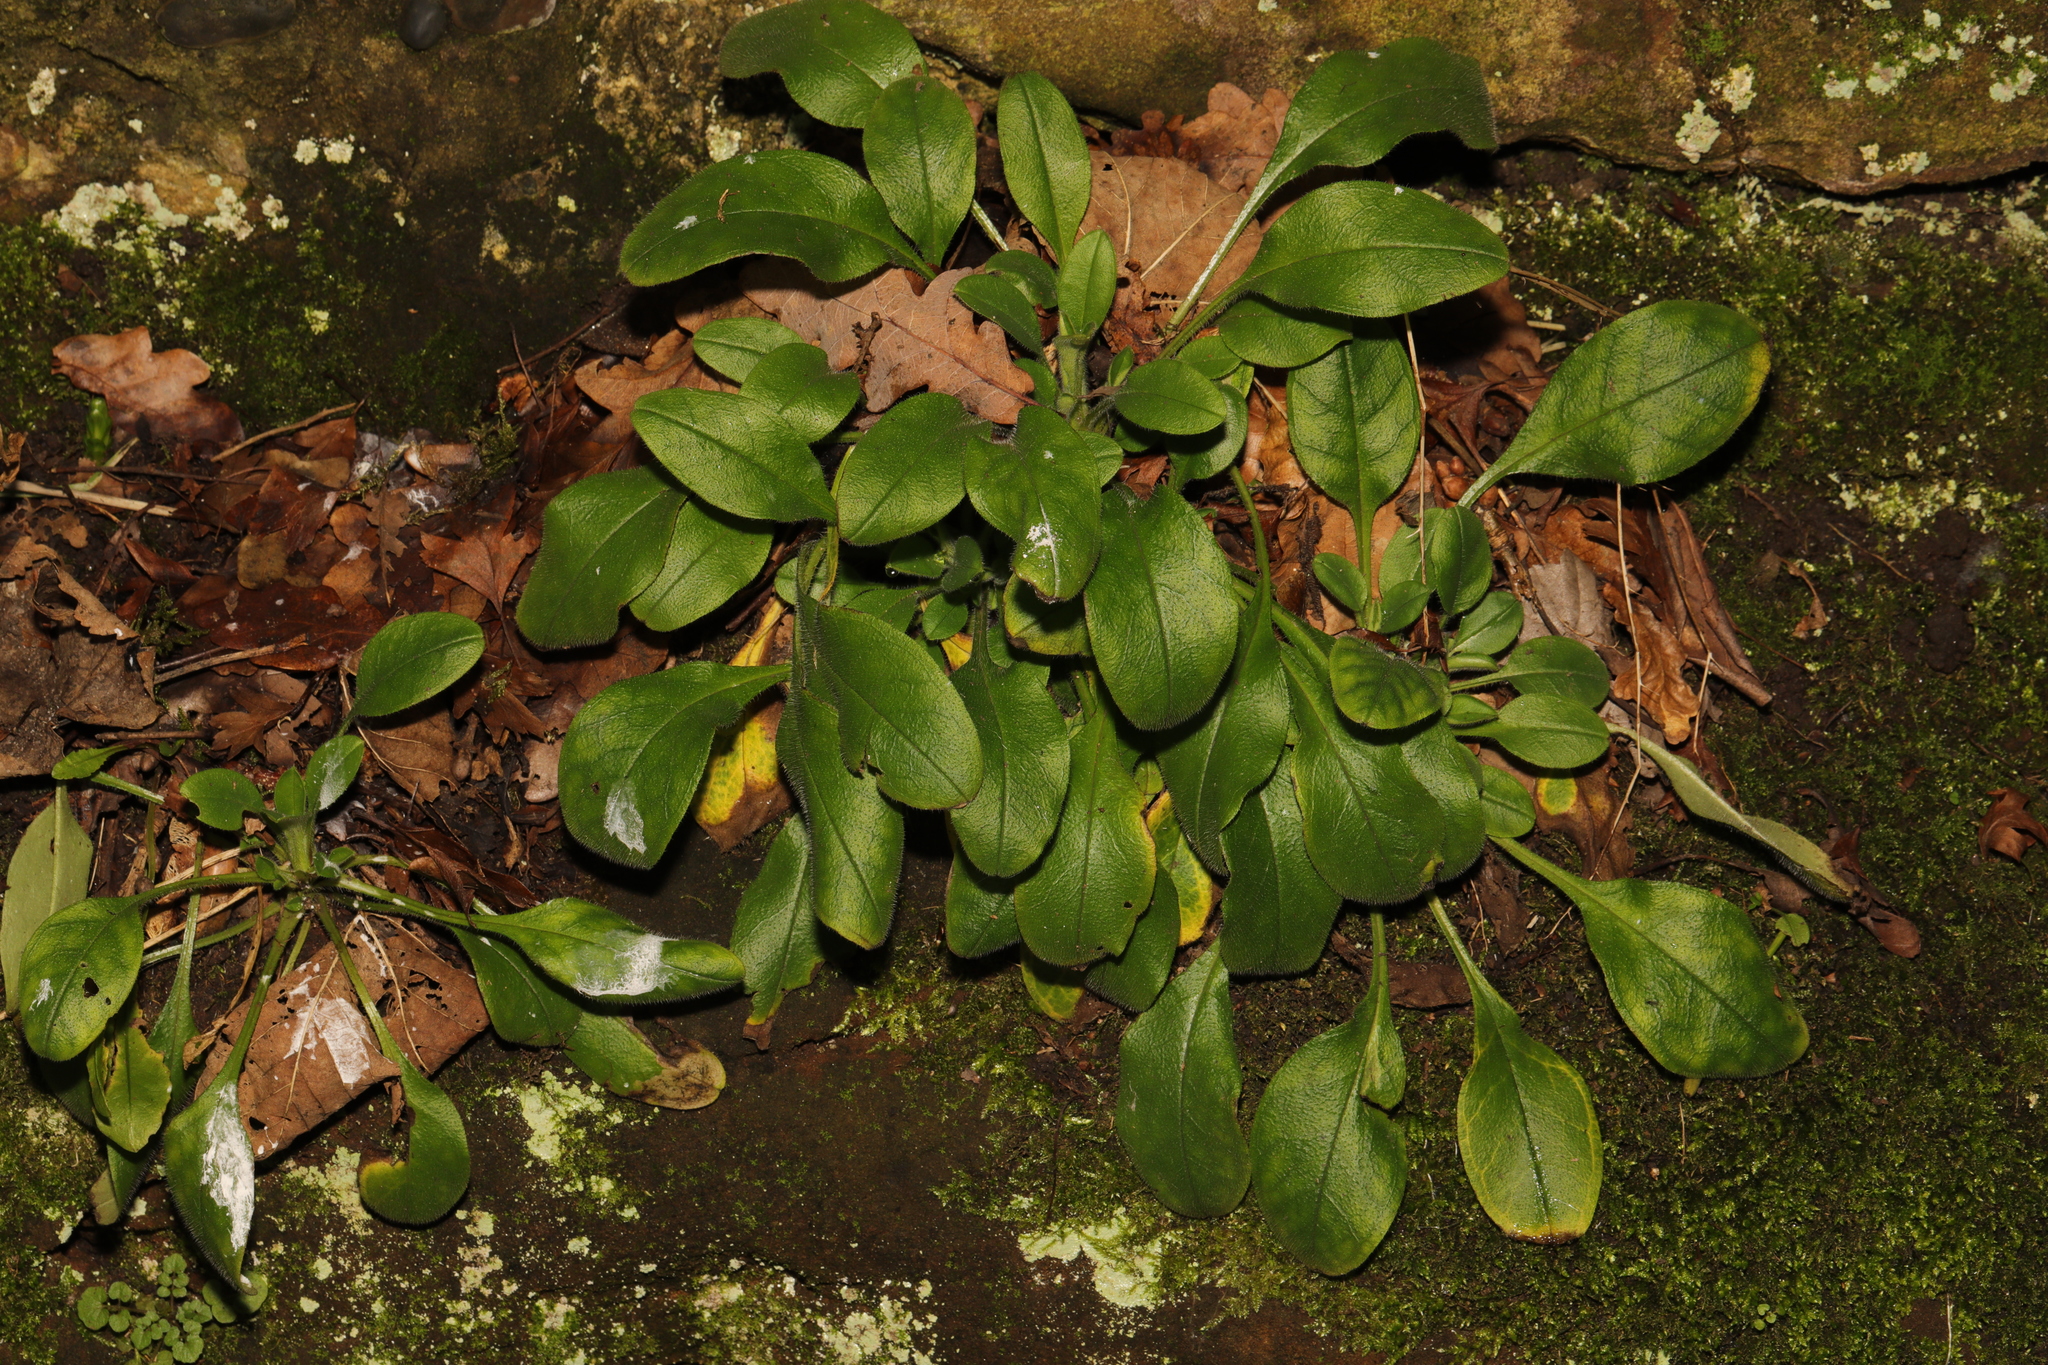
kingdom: Plantae
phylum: Tracheophyta
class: Magnoliopsida
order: Caryophyllales
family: Caryophyllaceae
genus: Silene
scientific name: Silene dioica
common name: Red campion
